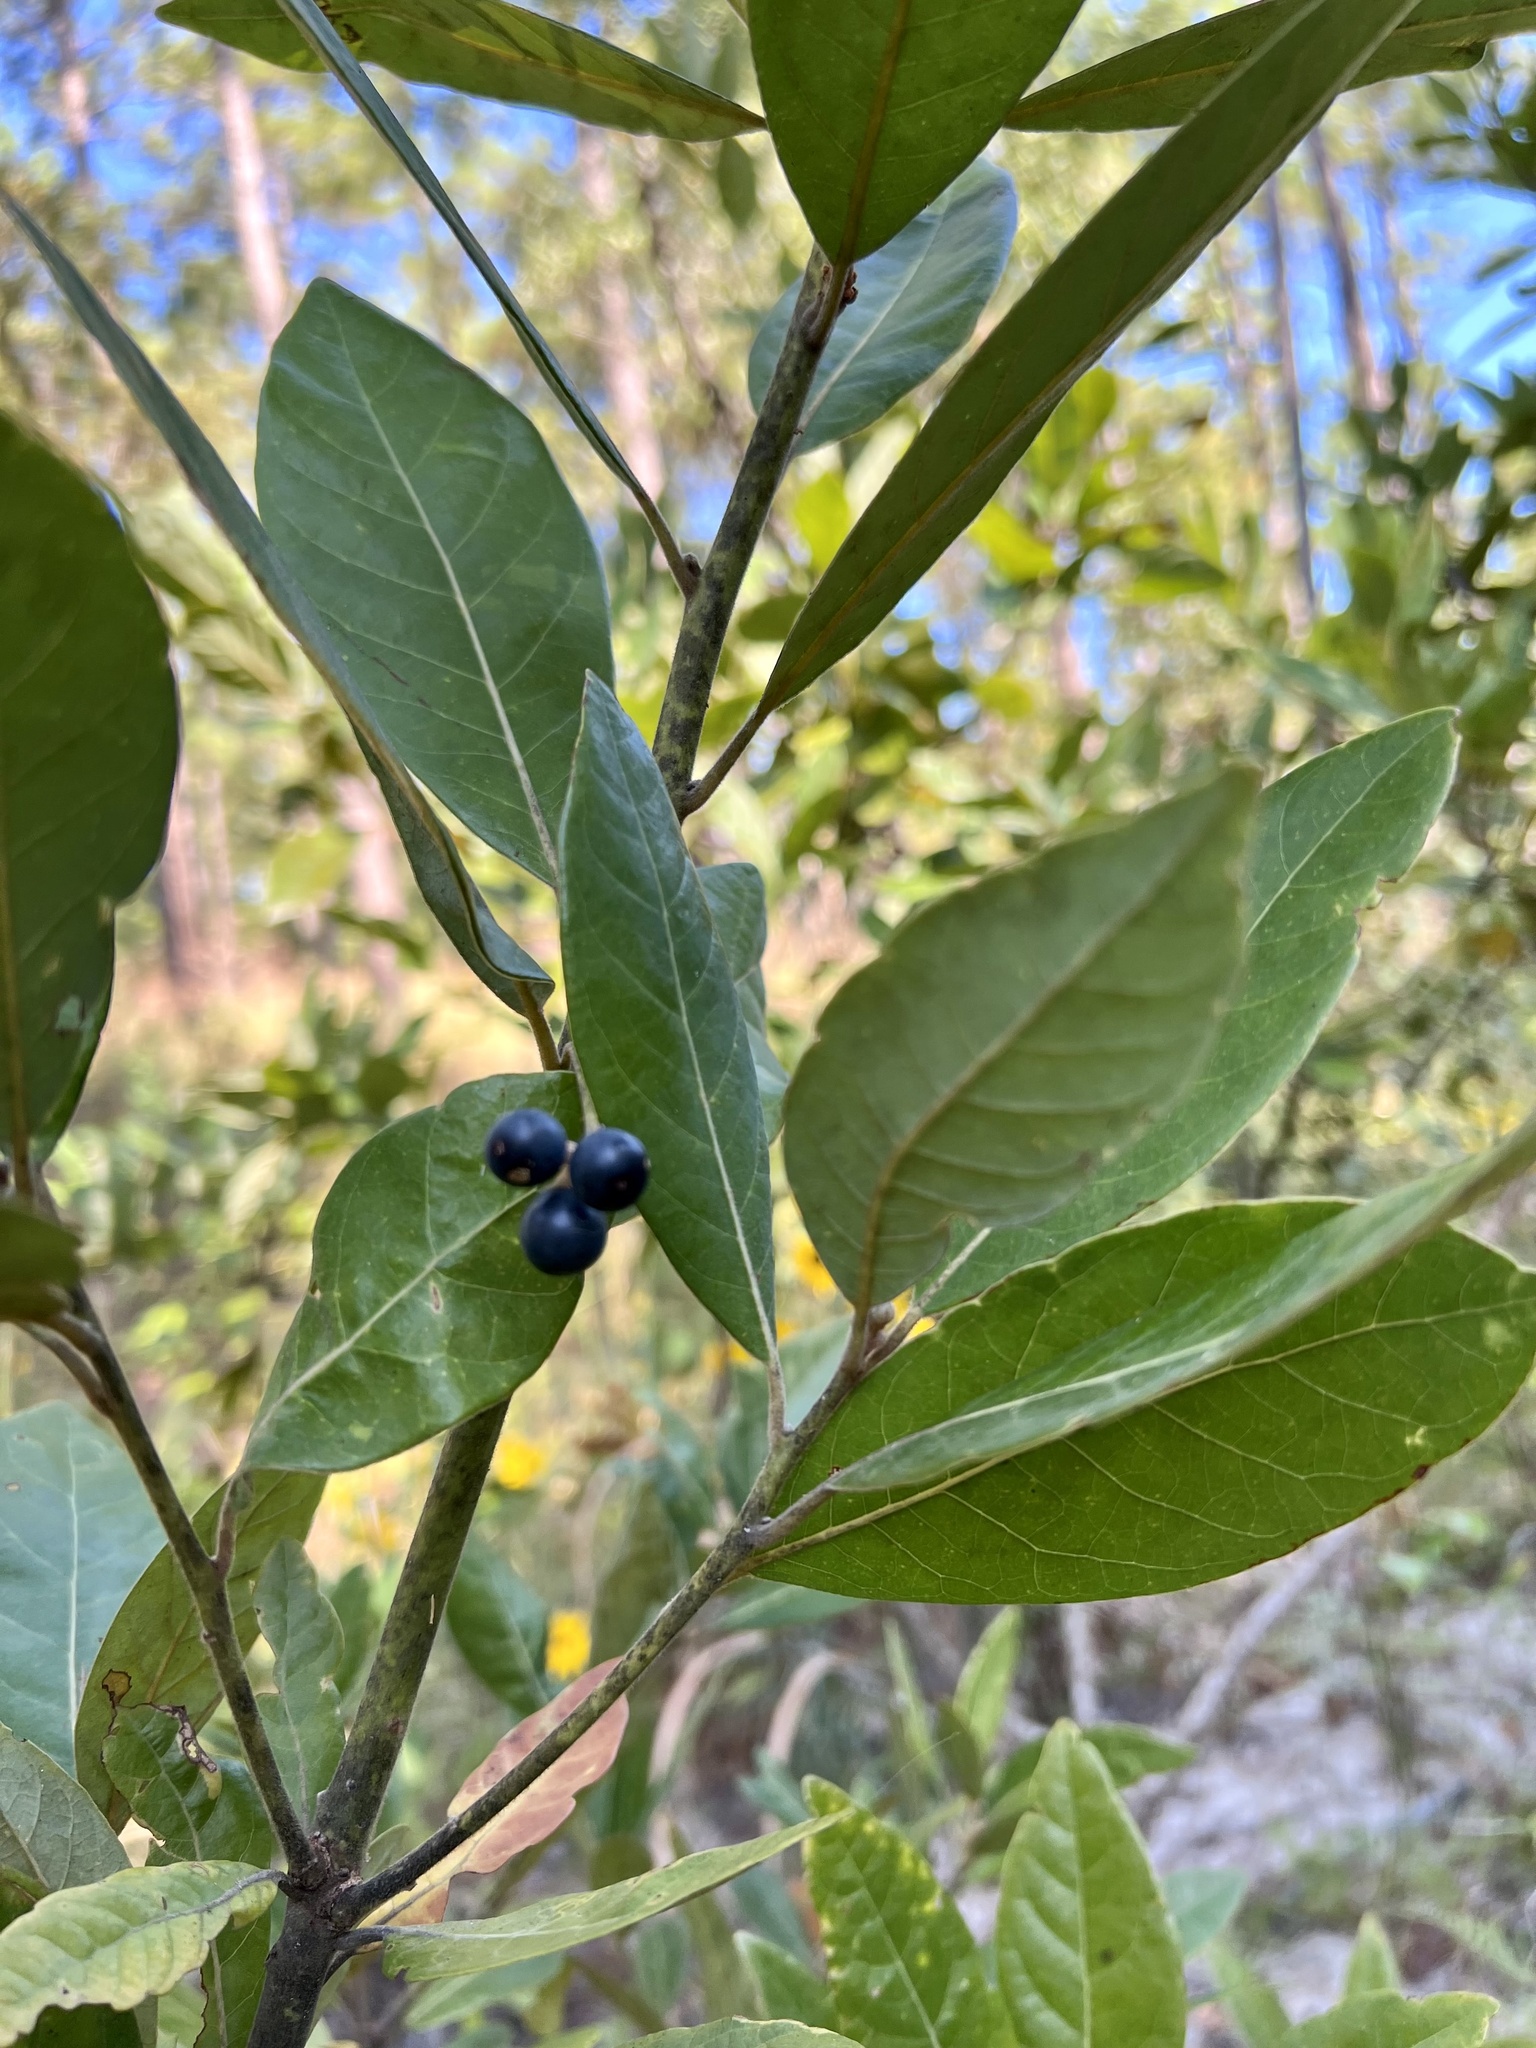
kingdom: Plantae
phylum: Tracheophyta
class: Magnoliopsida
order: Laurales
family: Lauraceae
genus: Persea
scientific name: Persea borbonia
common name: Redbay
